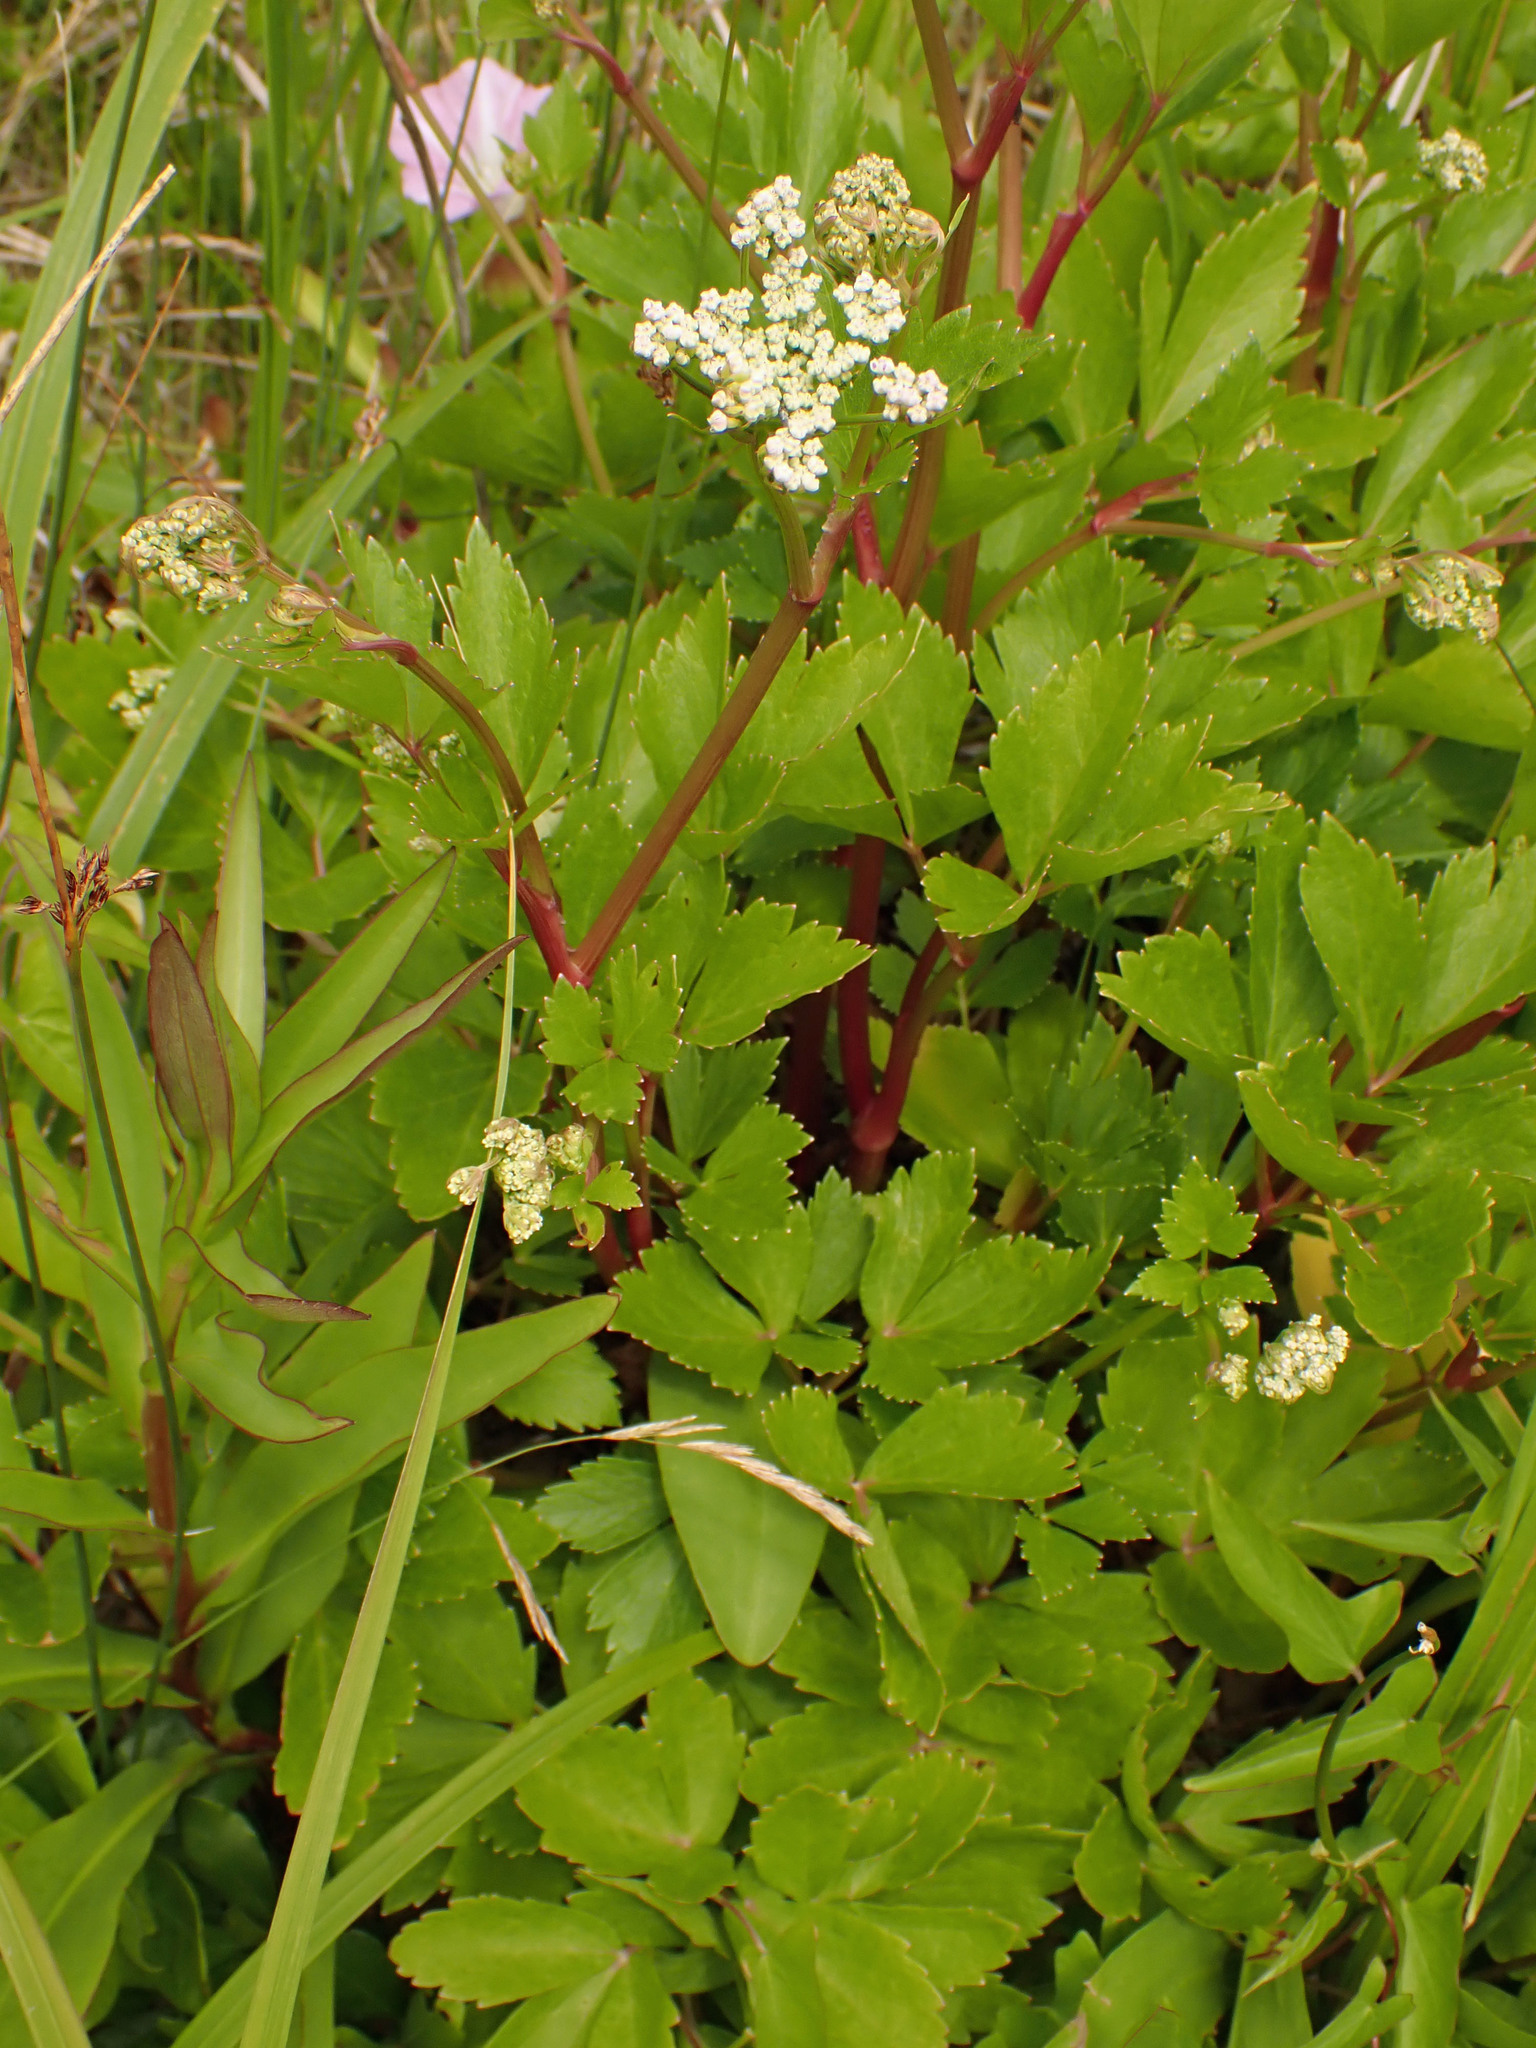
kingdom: Plantae
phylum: Tracheophyta
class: Magnoliopsida
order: Apiales
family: Apiaceae
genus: Ligusticum
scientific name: Ligusticum scothicum
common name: Beach lovage
